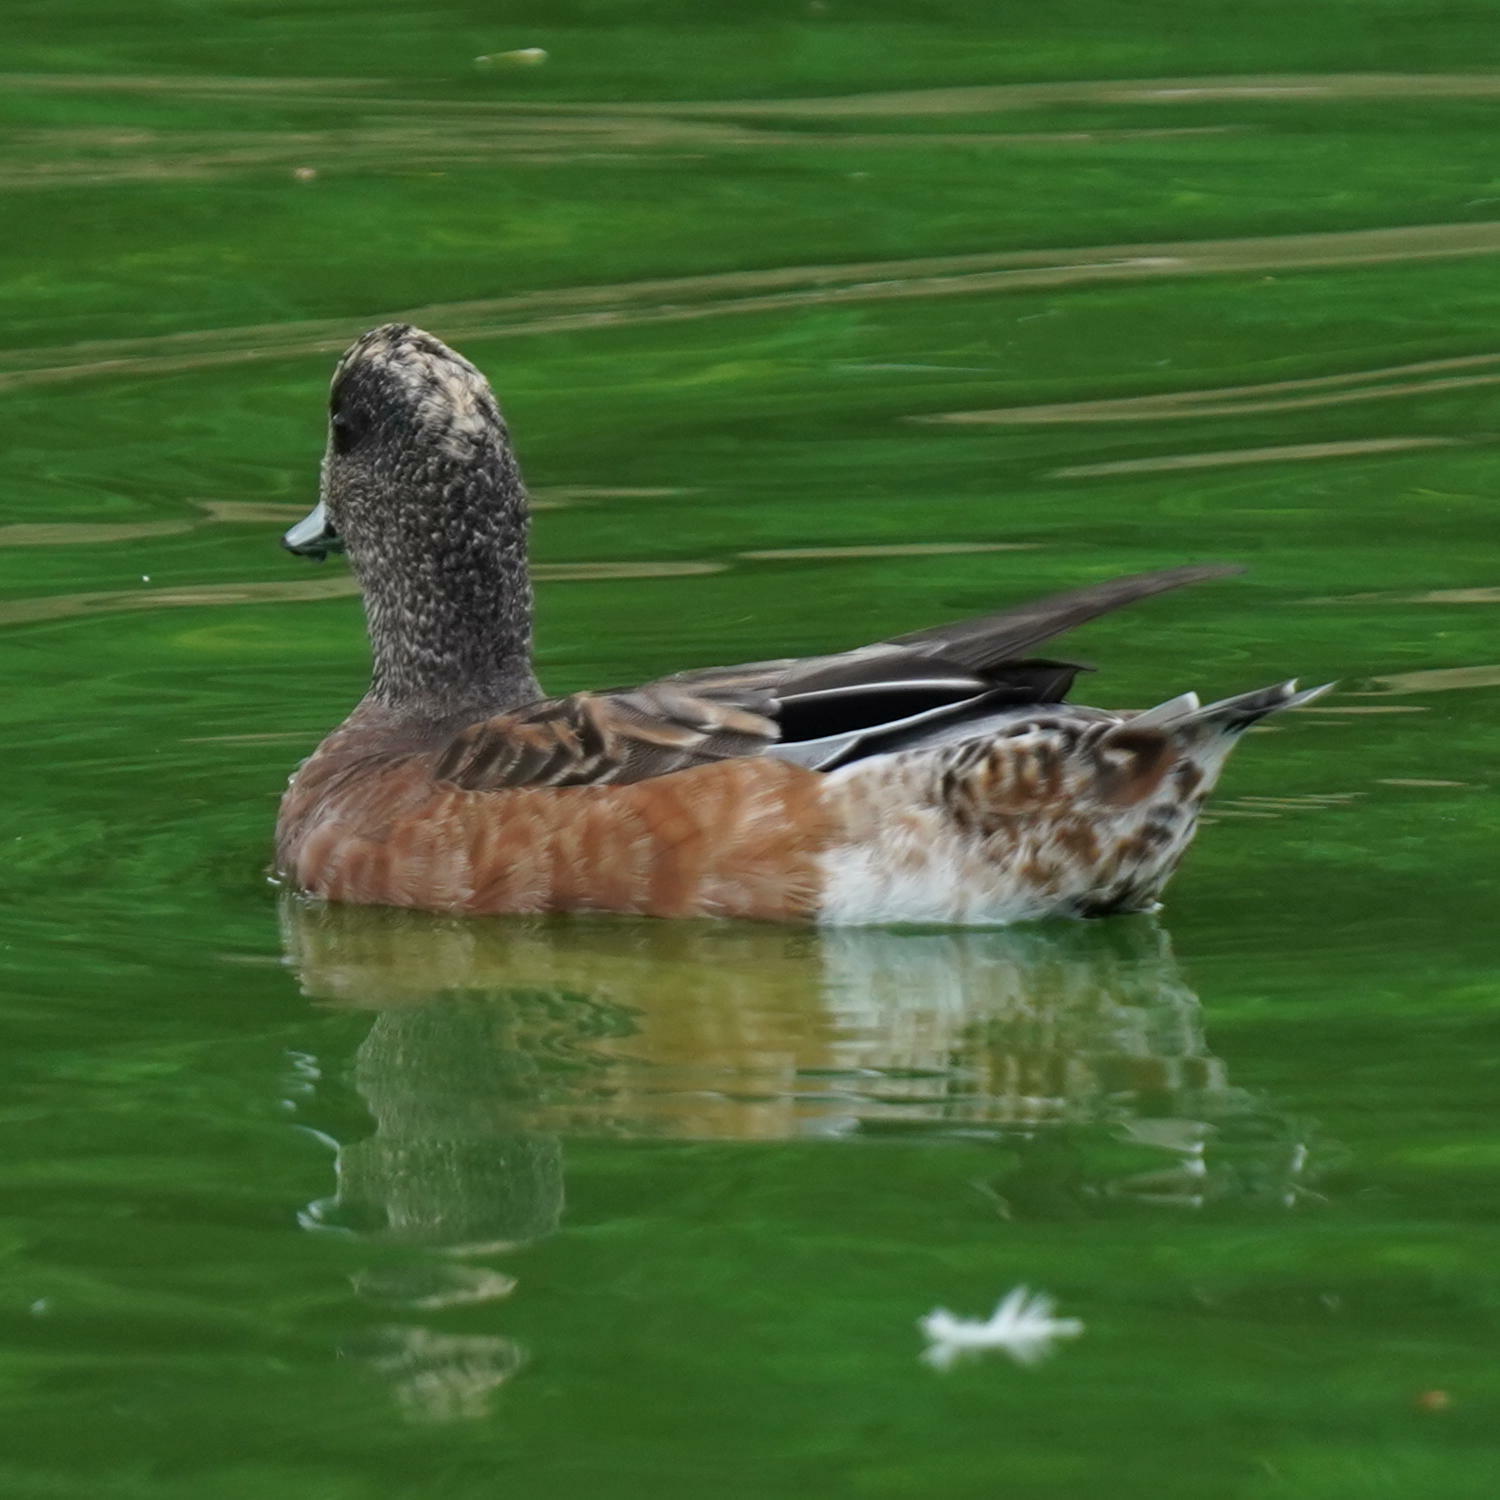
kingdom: Animalia
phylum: Chordata
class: Aves
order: Anseriformes
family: Anatidae
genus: Mareca
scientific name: Mareca americana
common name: American wigeon
